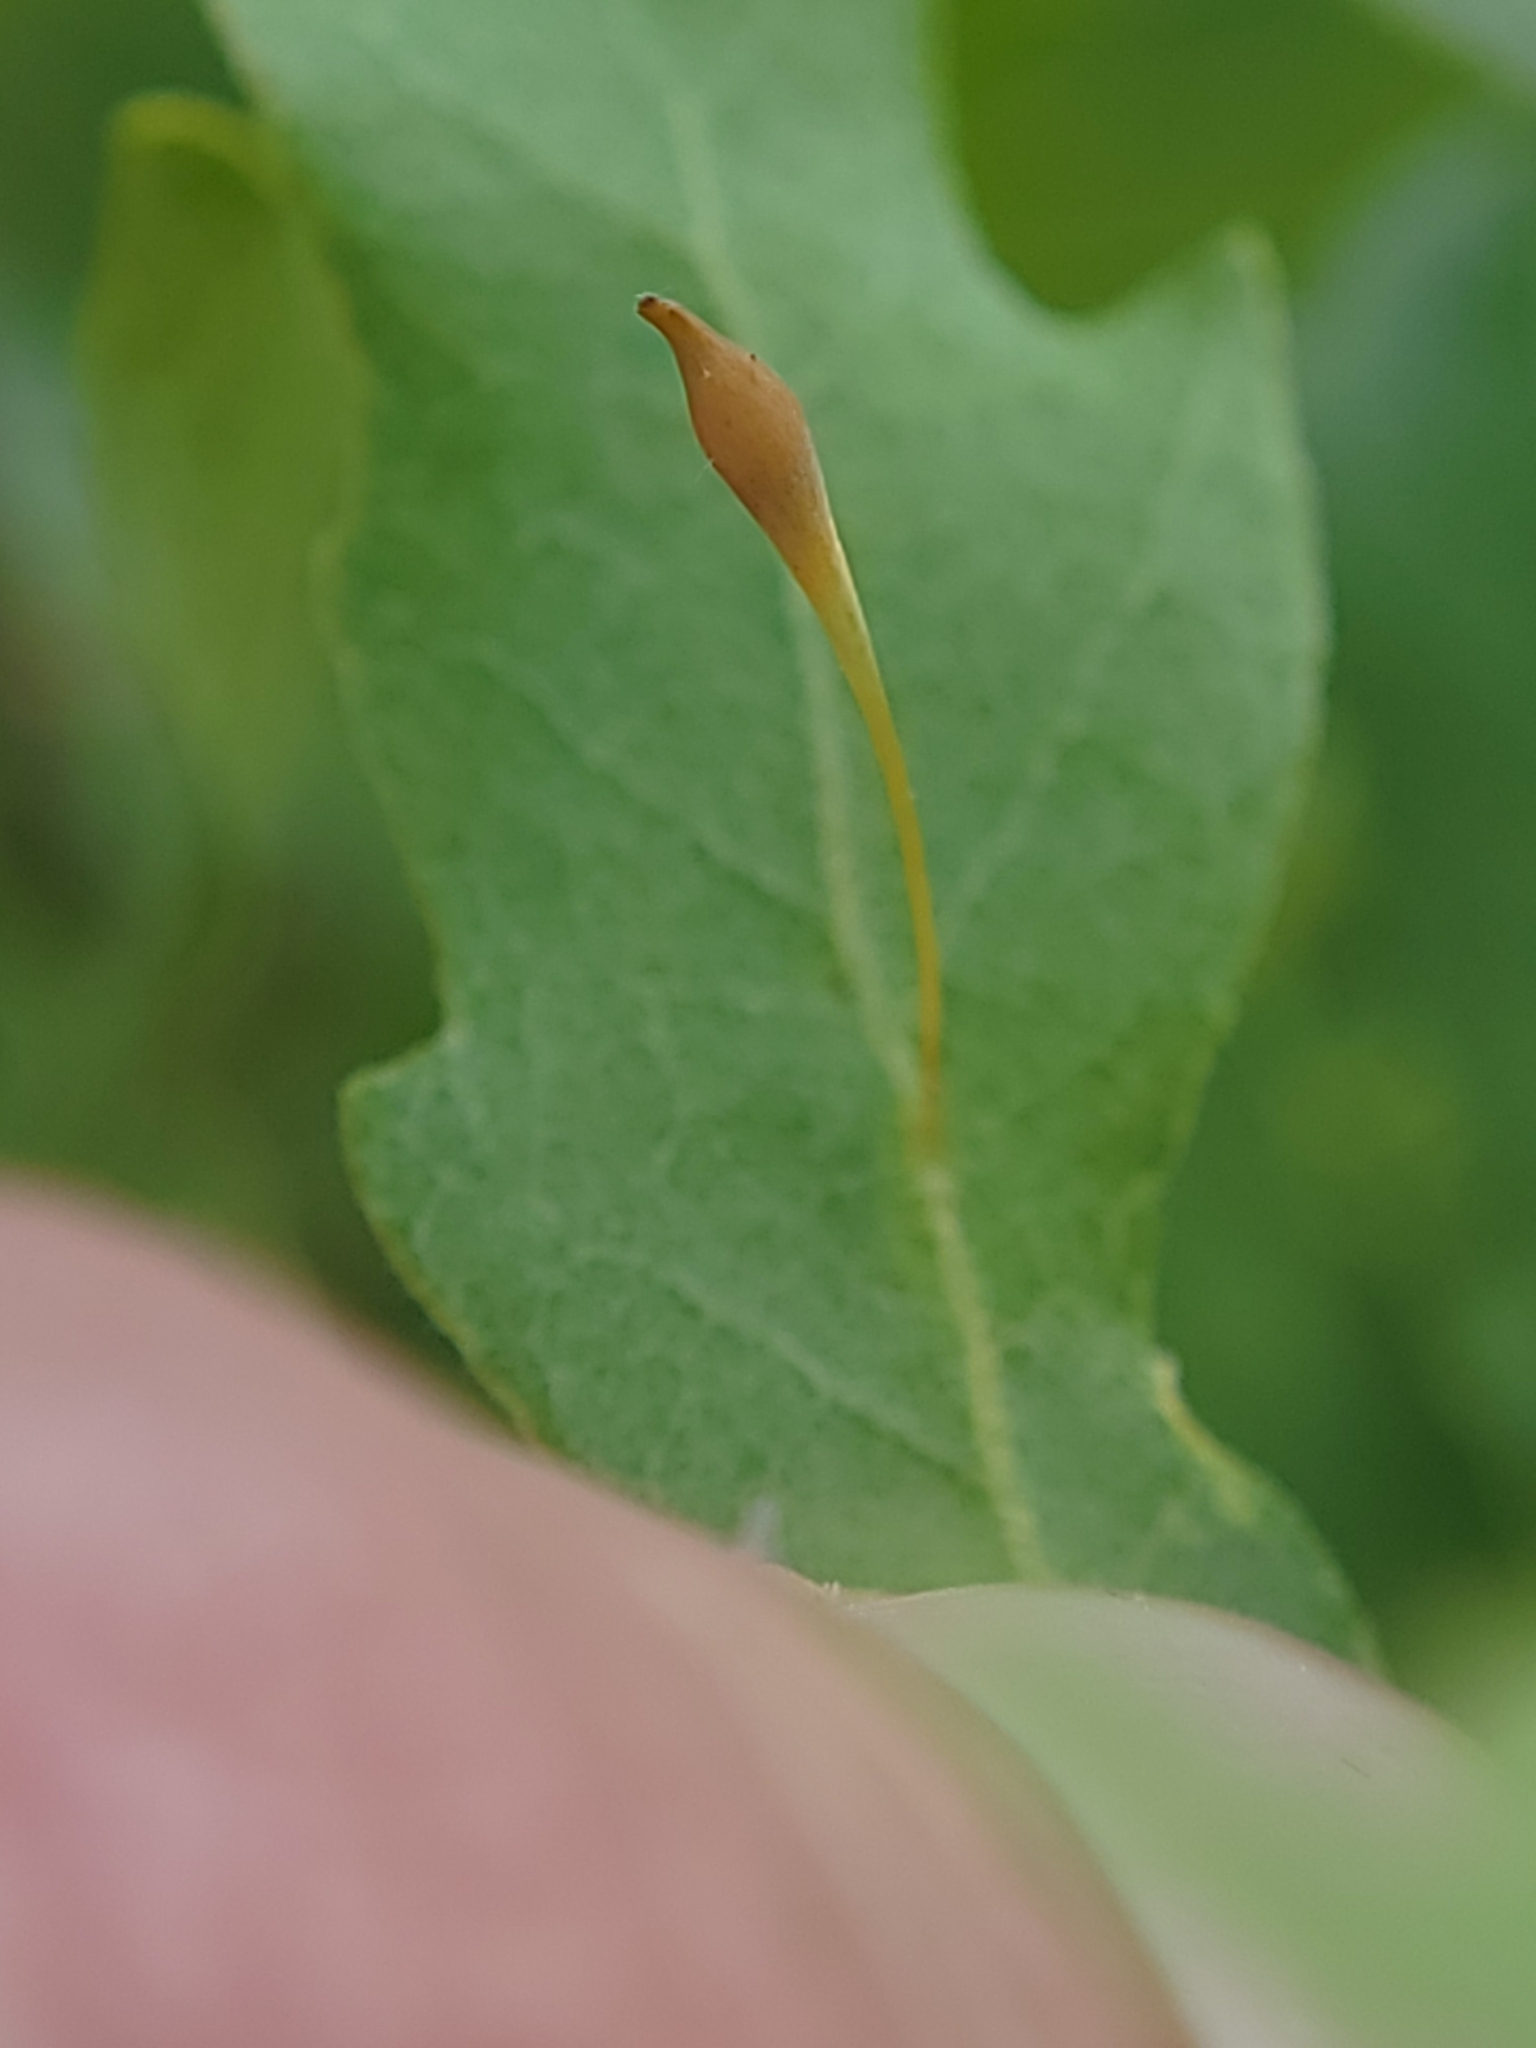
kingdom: Animalia
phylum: Arthropoda
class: Insecta
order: Hymenoptera
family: Cynipidae
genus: Andricus
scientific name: Andricus
